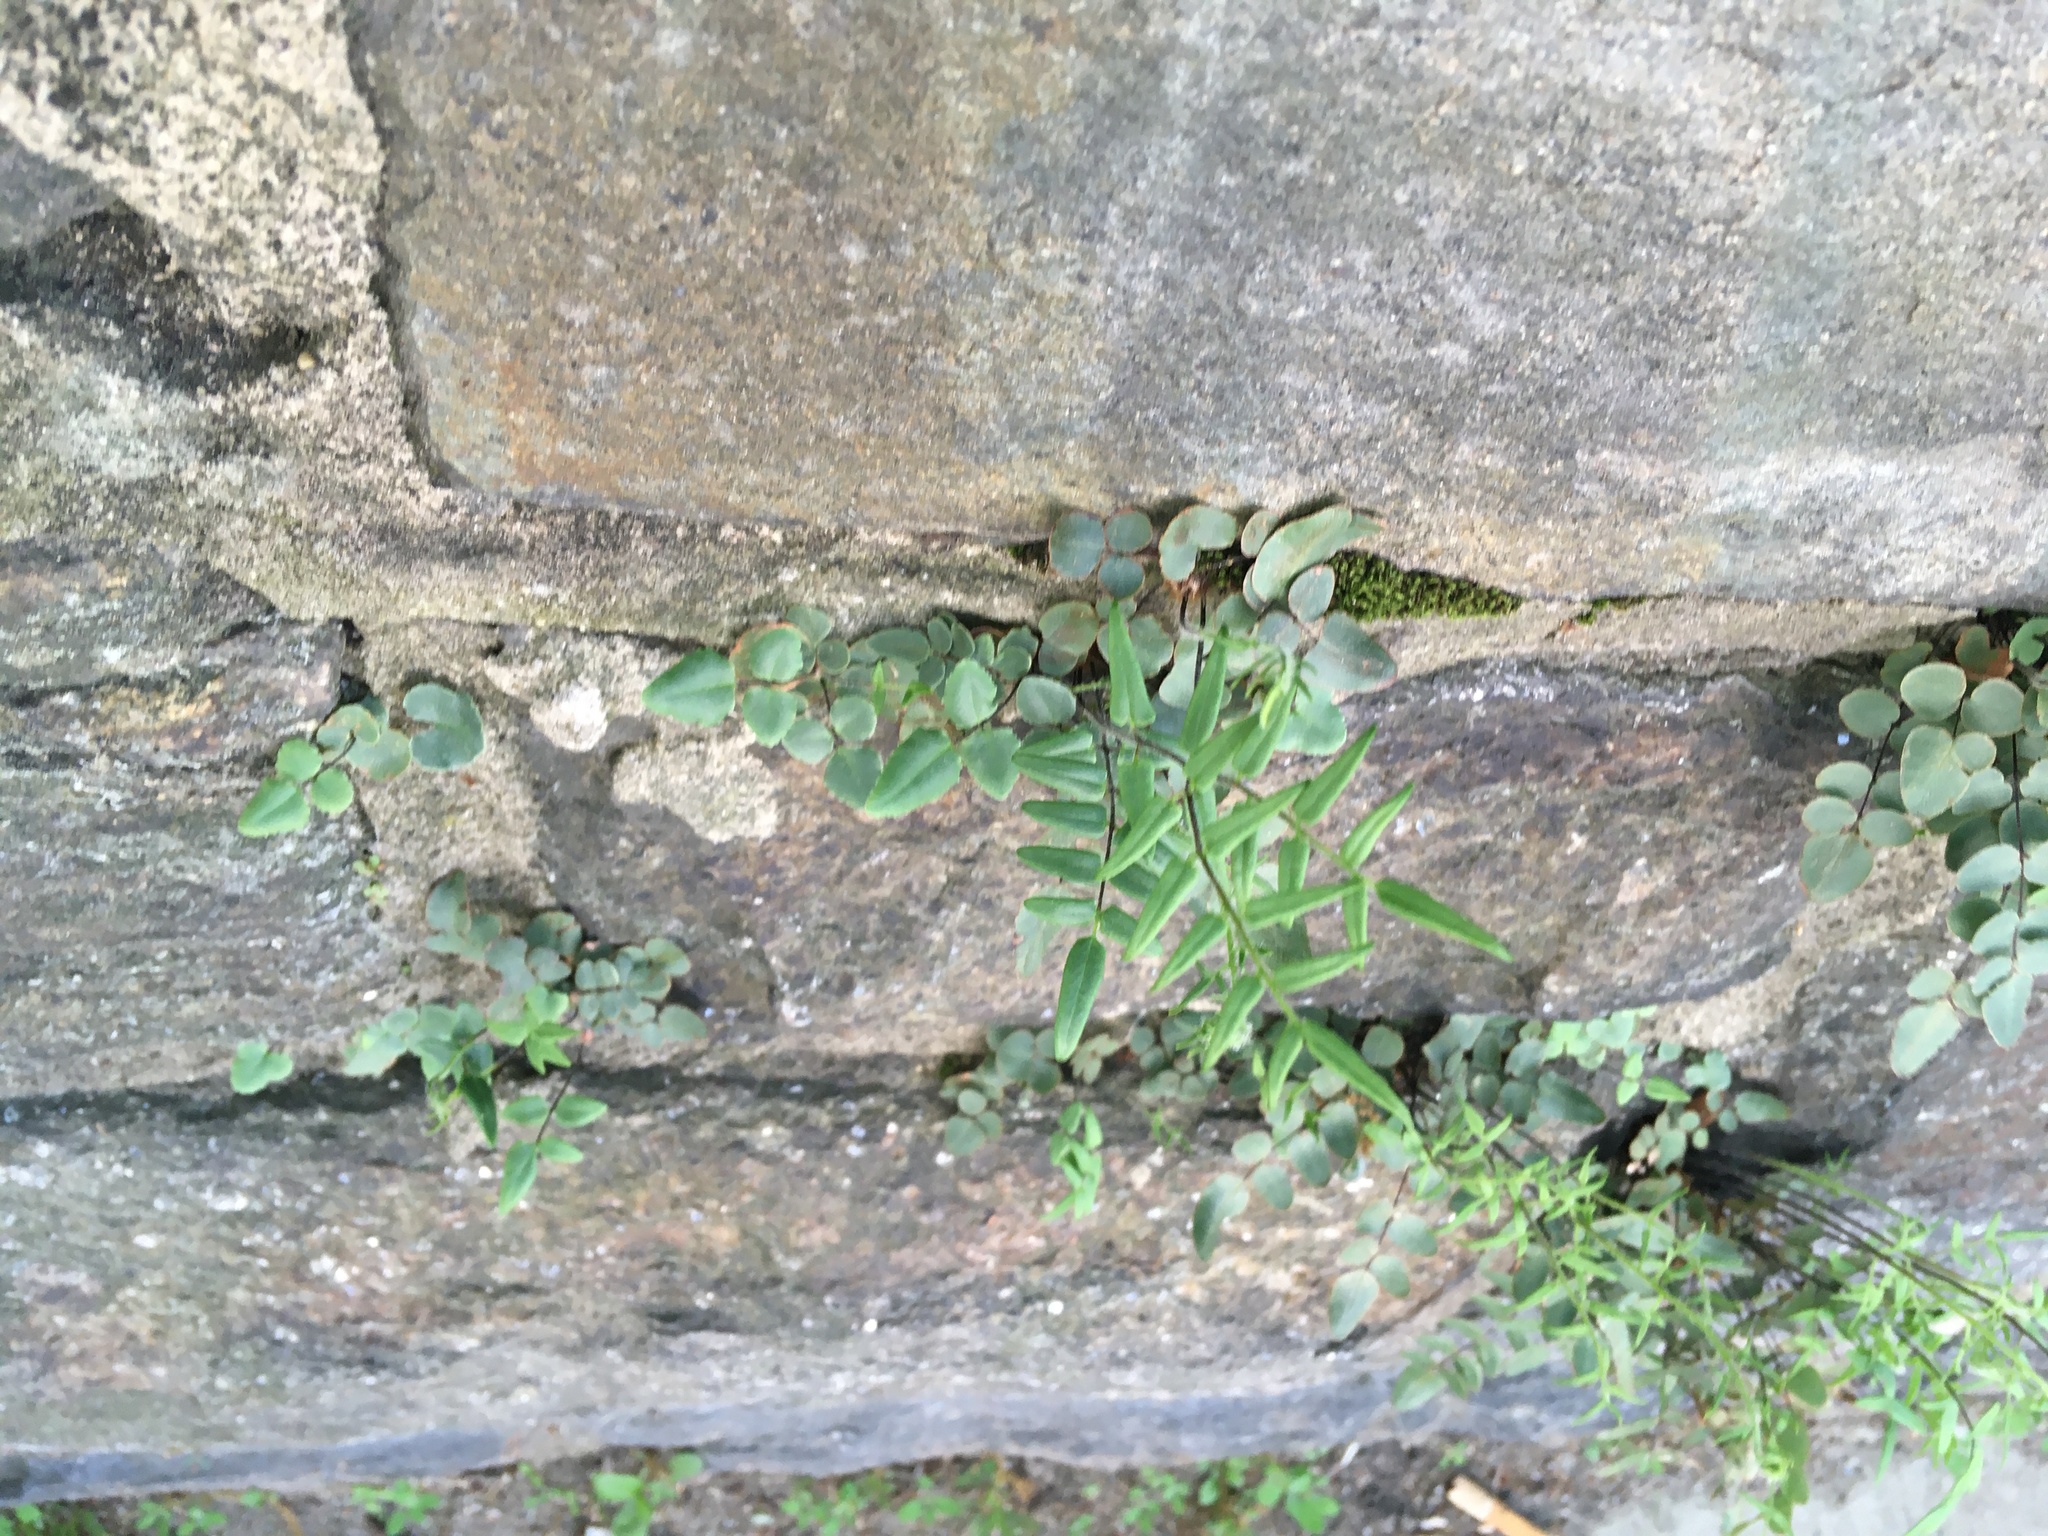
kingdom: Plantae
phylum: Tracheophyta
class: Polypodiopsida
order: Polypodiales
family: Pteridaceae
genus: Pellaea
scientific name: Pellaea atropurpurea
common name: Hairy cliffbrake
